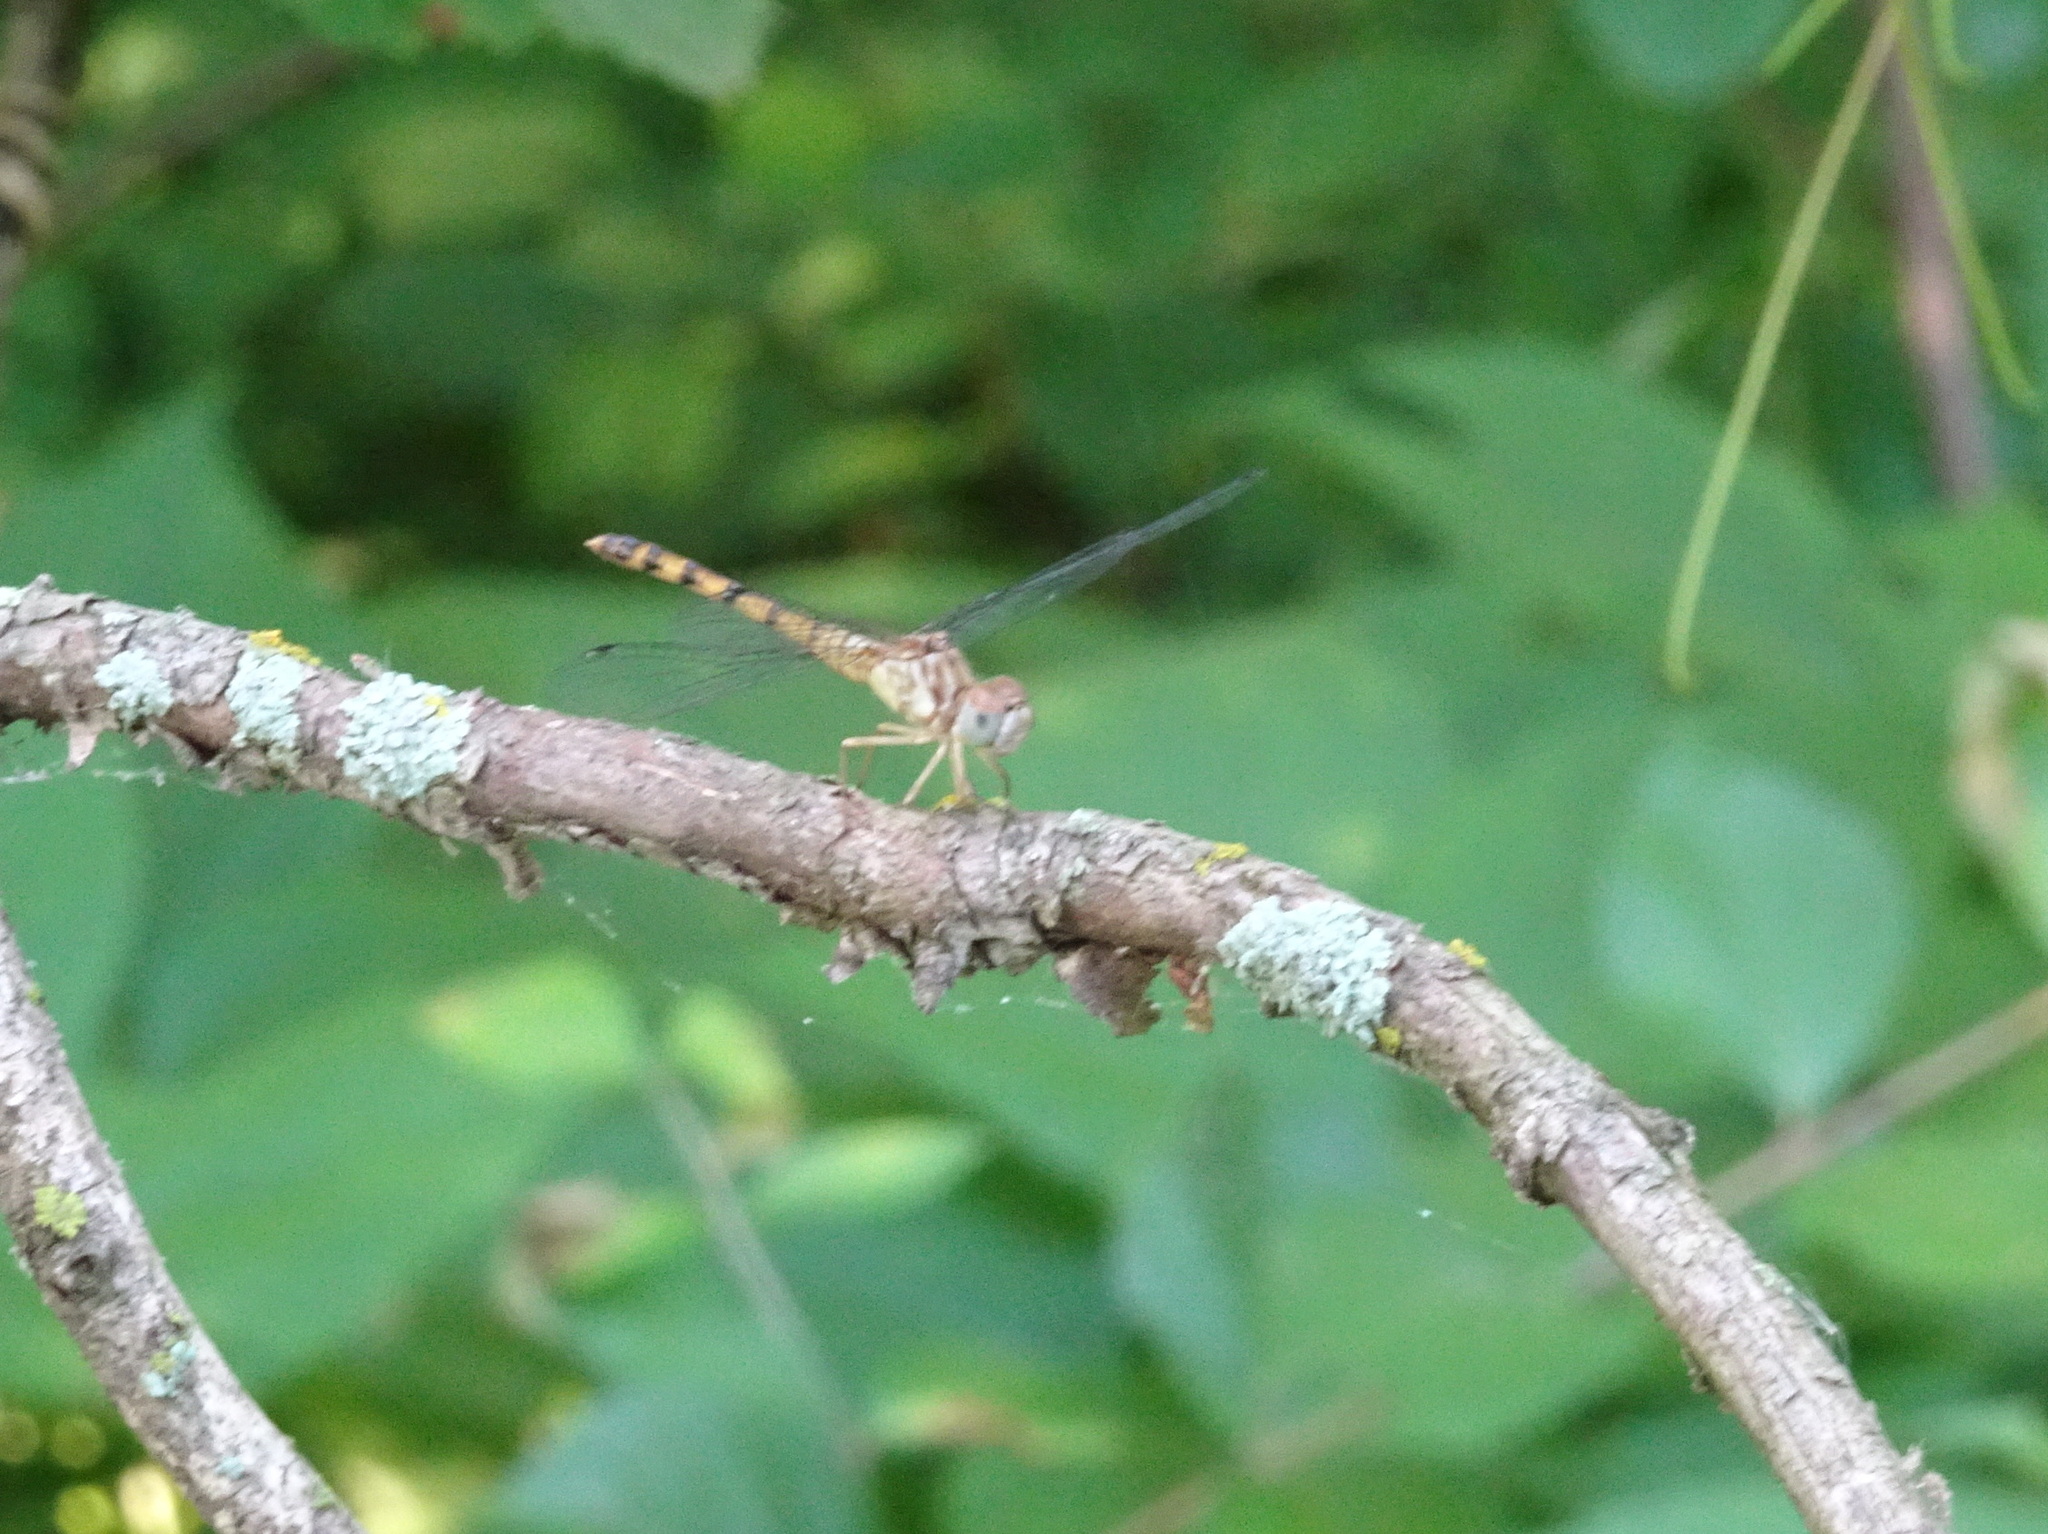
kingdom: Animalia
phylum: Arthropoda
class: Insecta
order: Odonata
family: Libellulidae
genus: Sympetrum
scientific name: Sympetrum ambiguum
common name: Blue-faced meadowhawk
